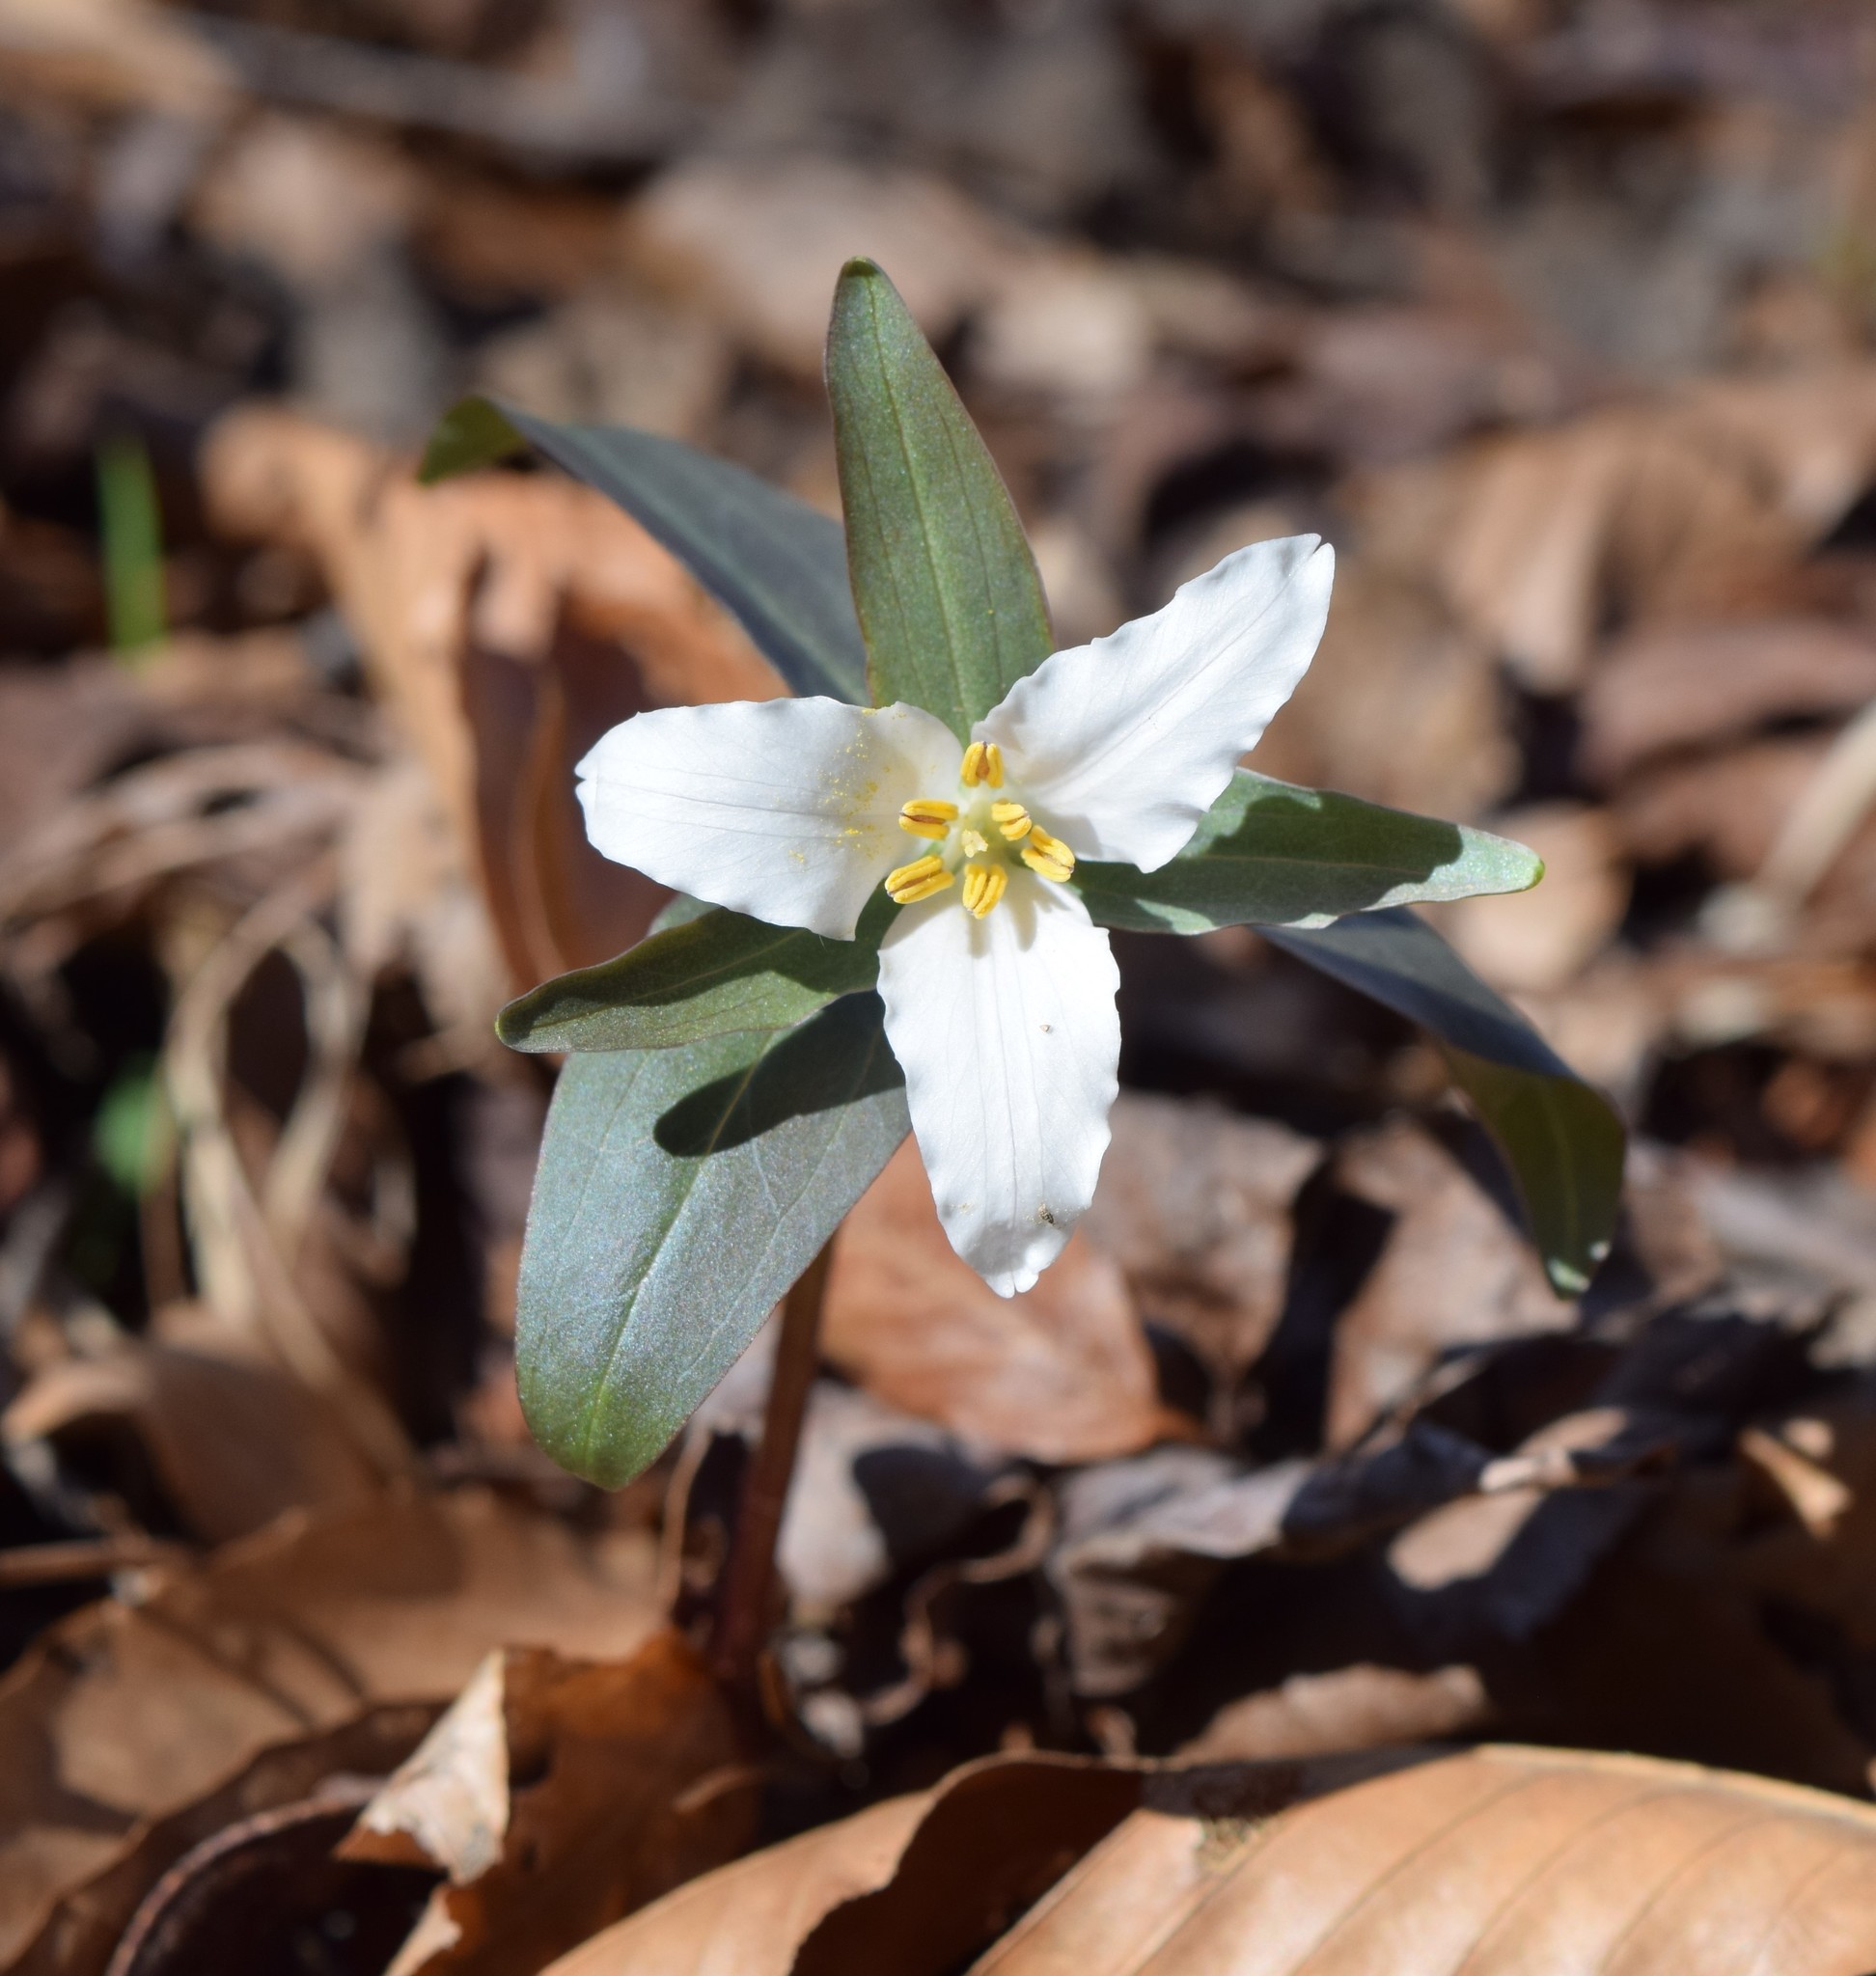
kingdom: Plantae
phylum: Tracheophyta
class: Liliopsida
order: Liliales
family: Melanthiaceae
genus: Trillium
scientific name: Trillium pusillum
